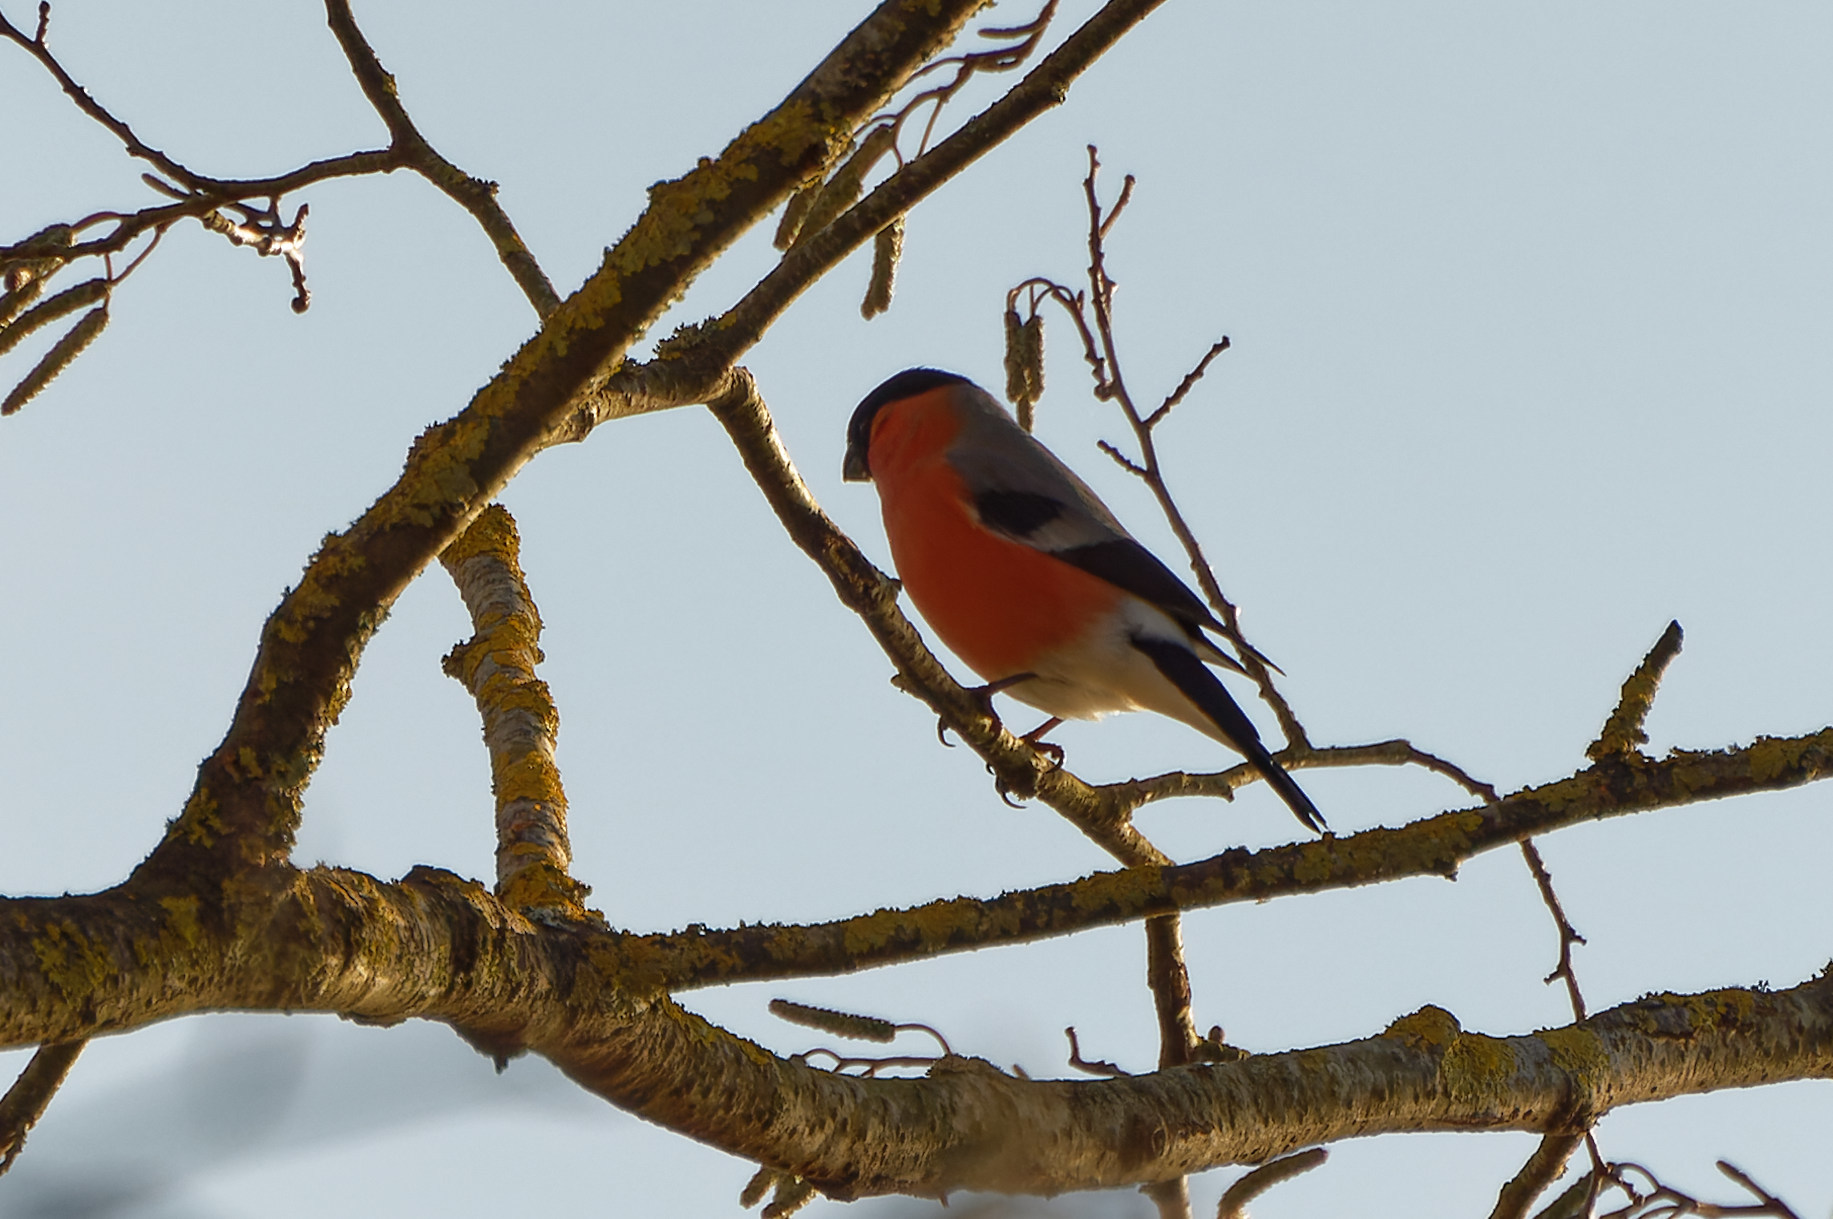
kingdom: Animalia
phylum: Chordata
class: Aves
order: Passeriformes
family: Fringillidae
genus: Pyrrhula
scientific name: Pyrrhula pyrrhula
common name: Eurasian bullfinch
